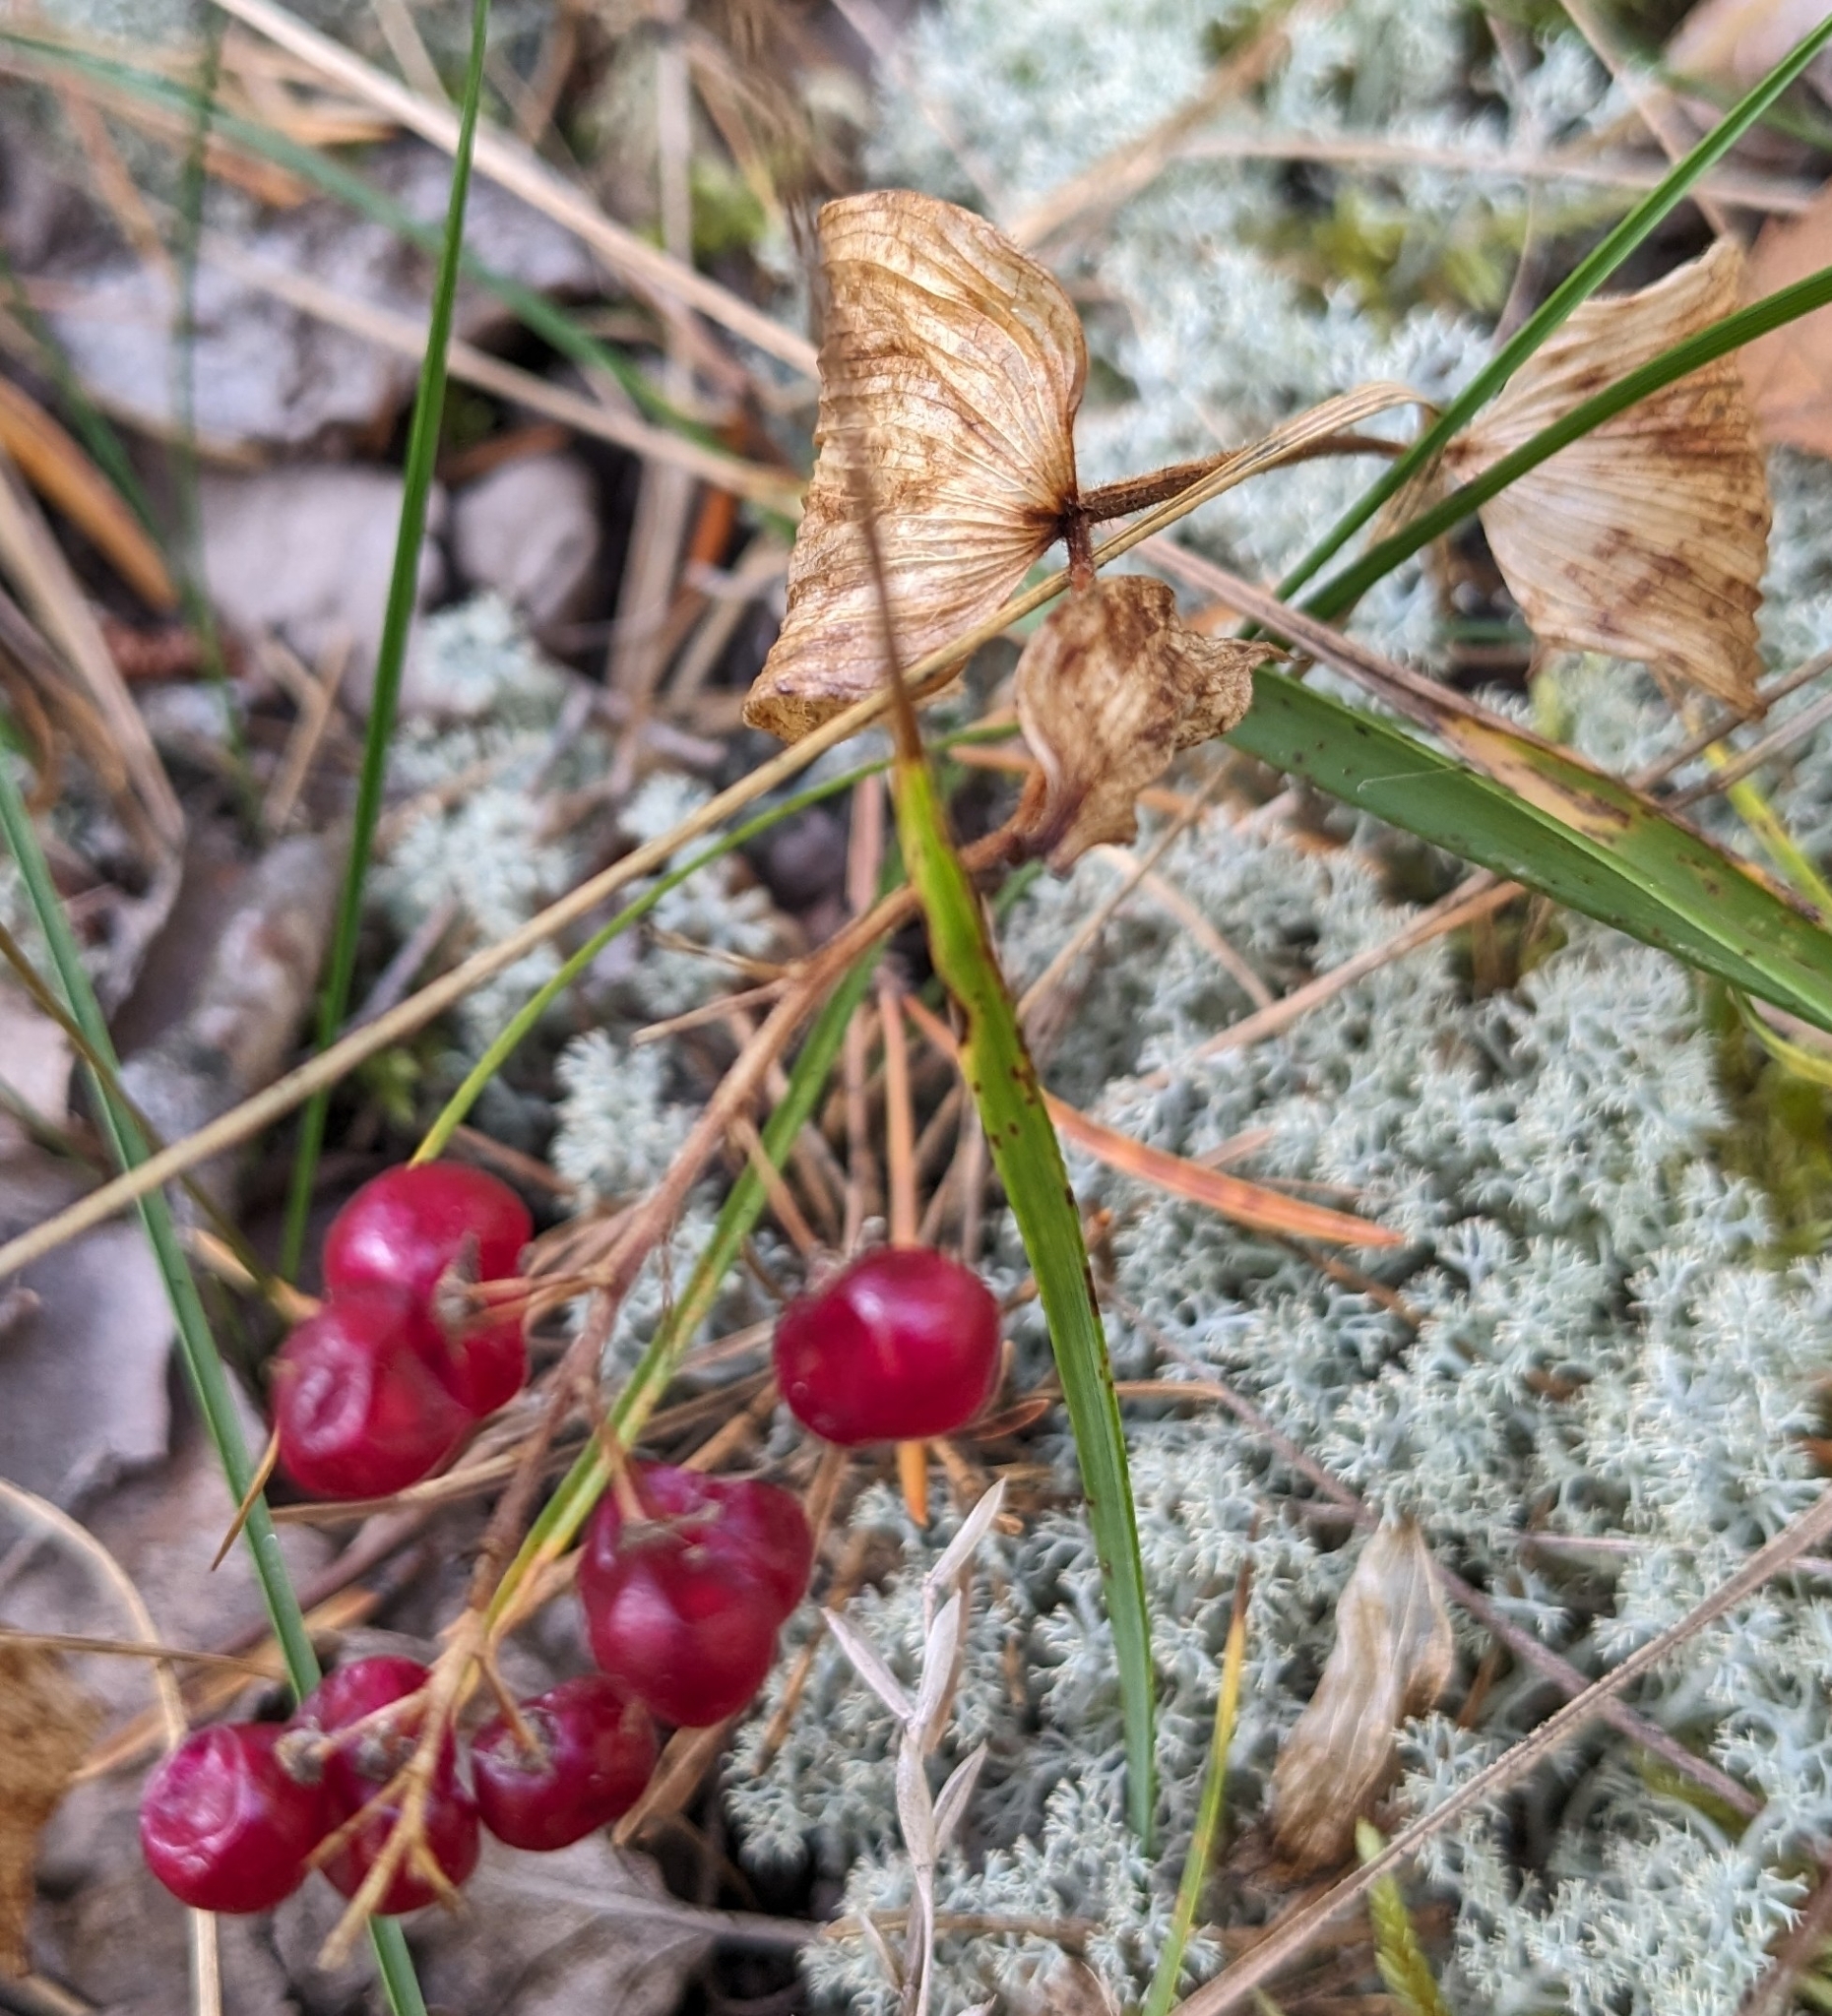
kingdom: Plantae
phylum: Tracheophyta
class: Liliopsida
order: Asparagales
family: Asparagaceae
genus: Maianthemum
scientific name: Maianthemum canadense
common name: False lily-of-the-valley
